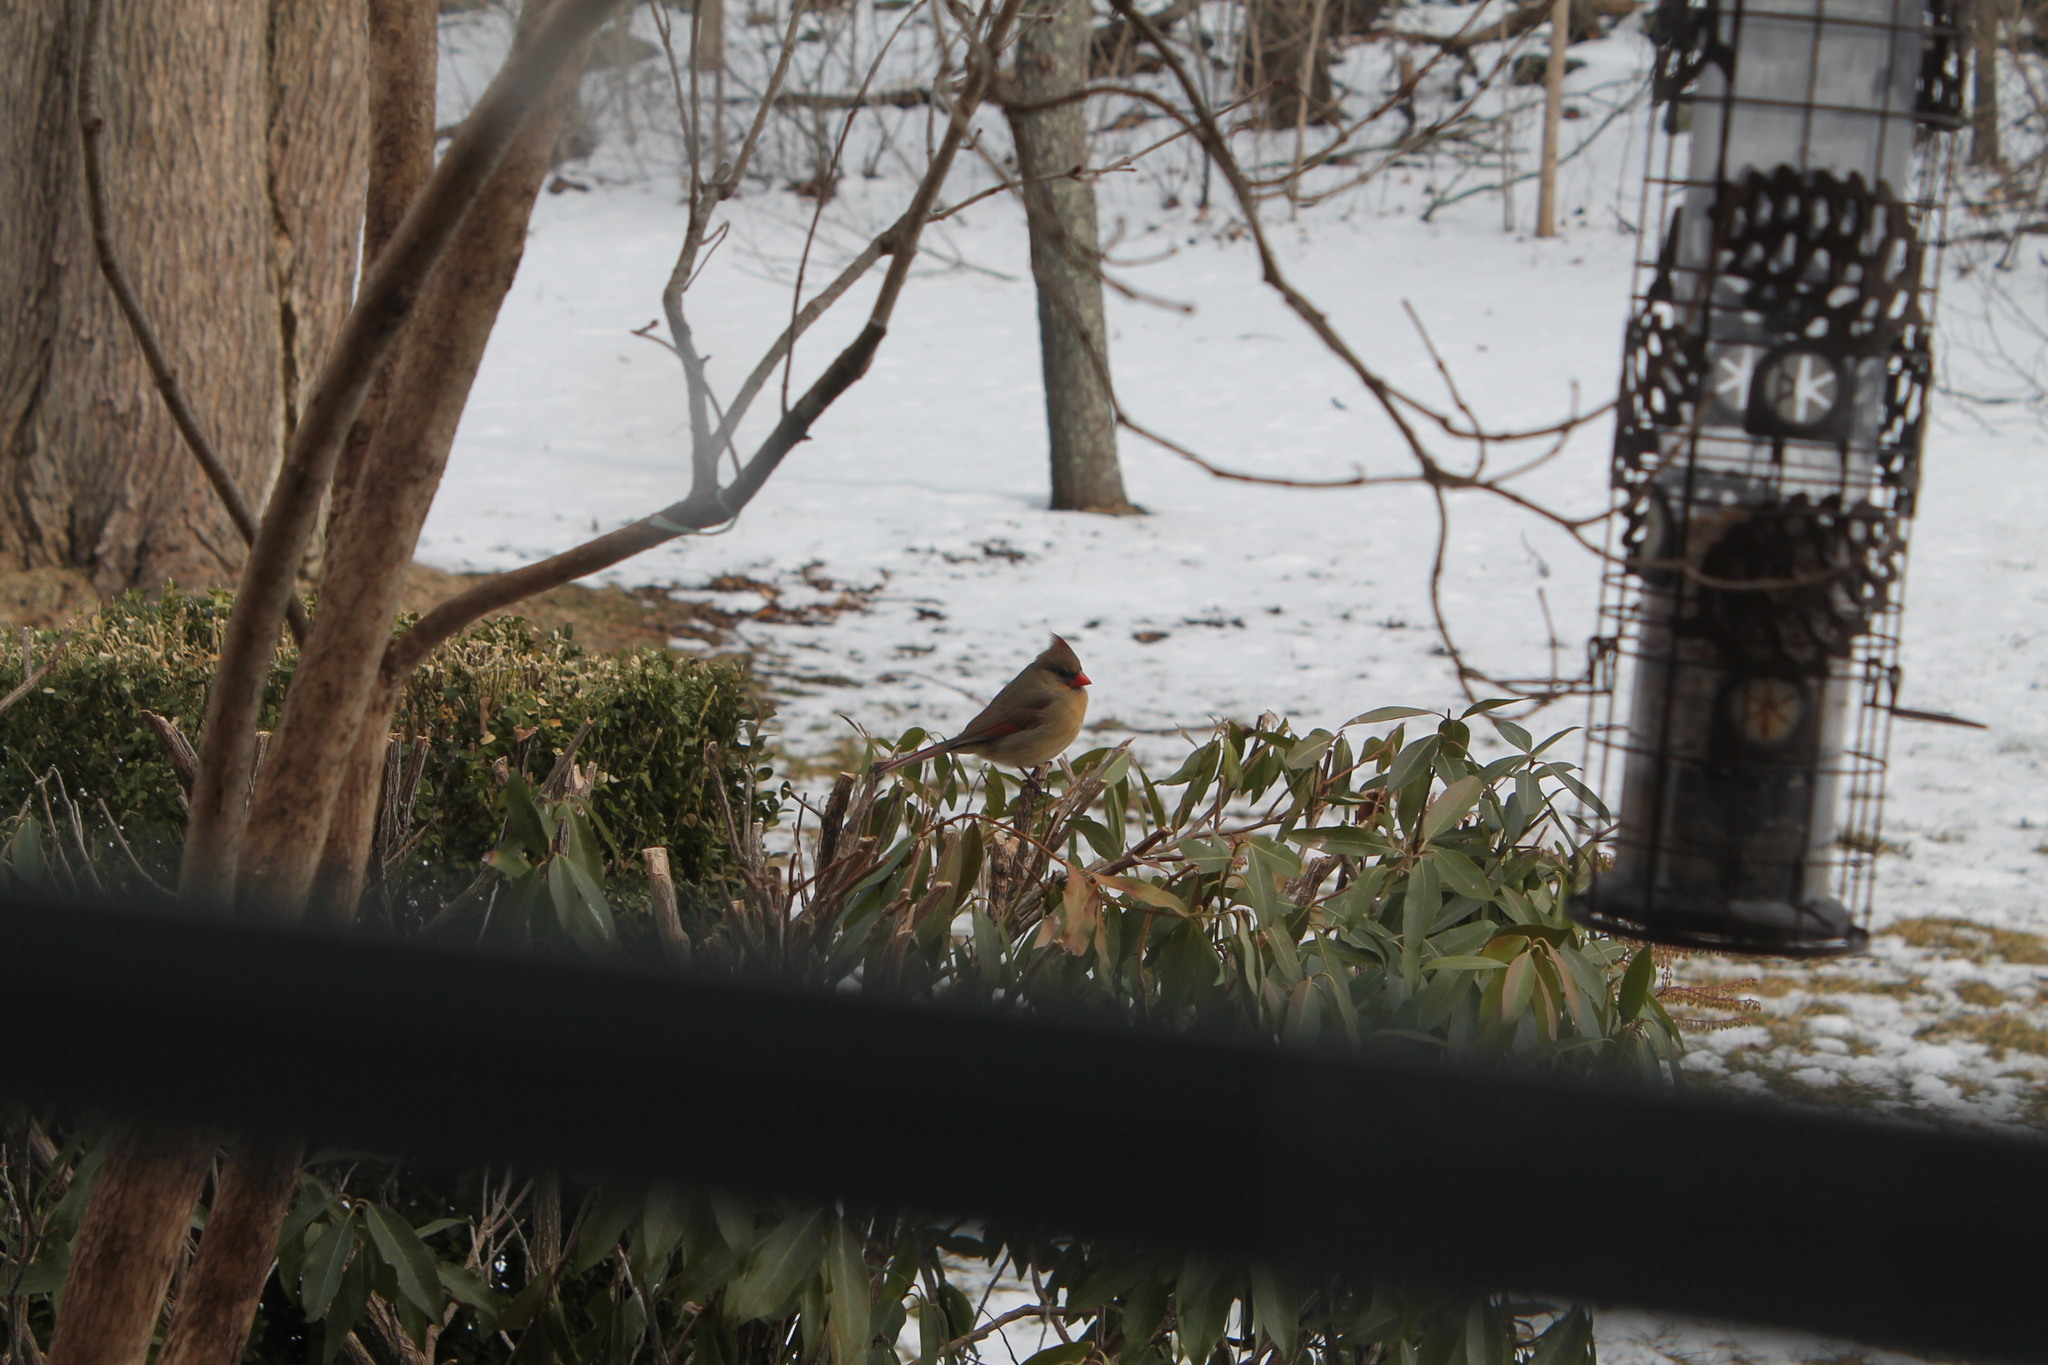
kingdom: Animalia
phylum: Chordata
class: Aves
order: Passeriformes
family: Cardinalidae
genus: Cardinalis
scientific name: Cardinalis cardinalis
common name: Northern cardinal
